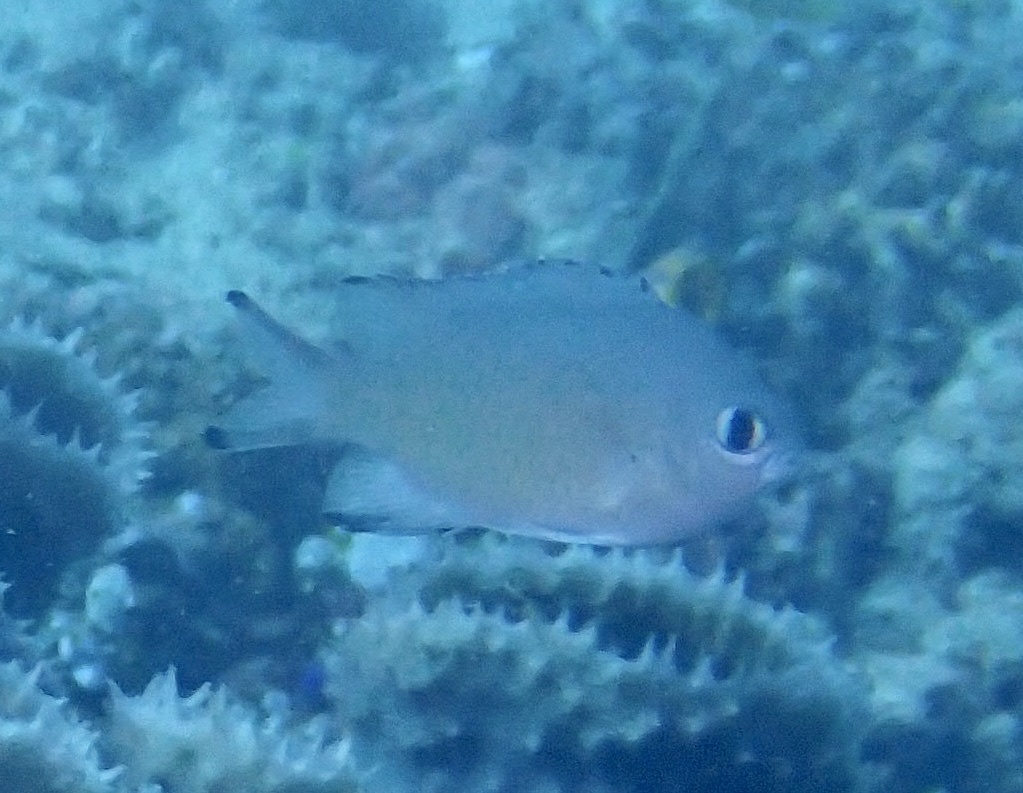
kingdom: Animalia
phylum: Chordata
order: Perciformes
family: Pomacentridae
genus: Chromis
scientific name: Chromis lepidolepis
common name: Scaly chromis
